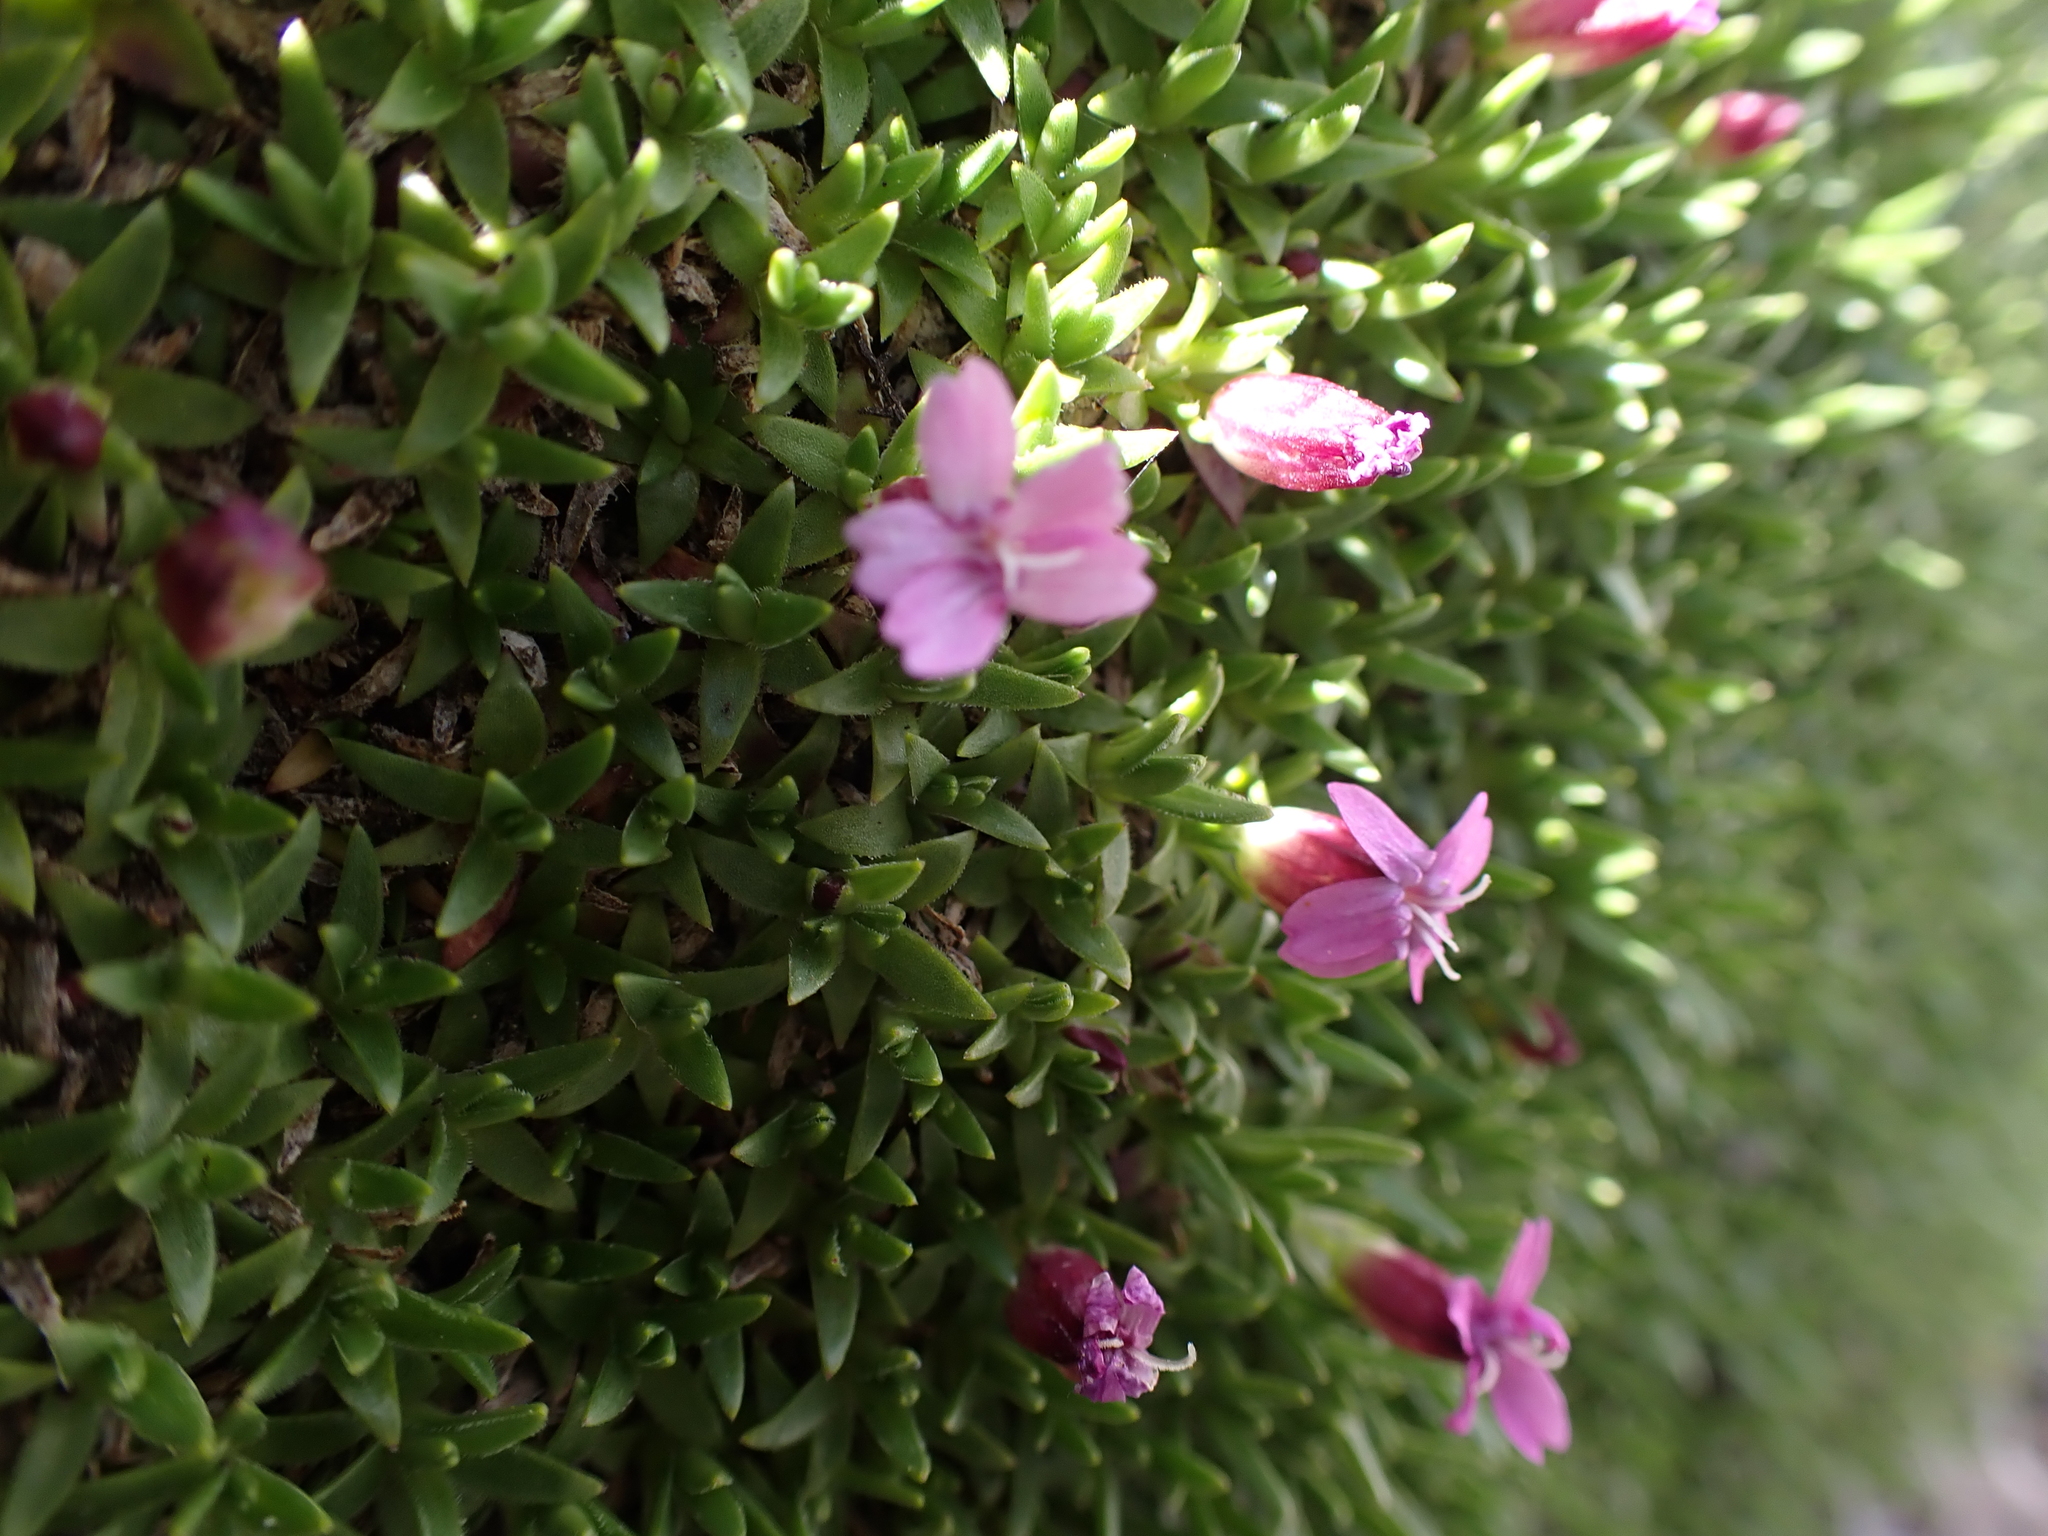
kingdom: Plantae
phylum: Tracheophyta
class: Magnoliopsida
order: Caryophyllales
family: Caryophyllaceae
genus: Silene
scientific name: Silene acaulis
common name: Moss campion
